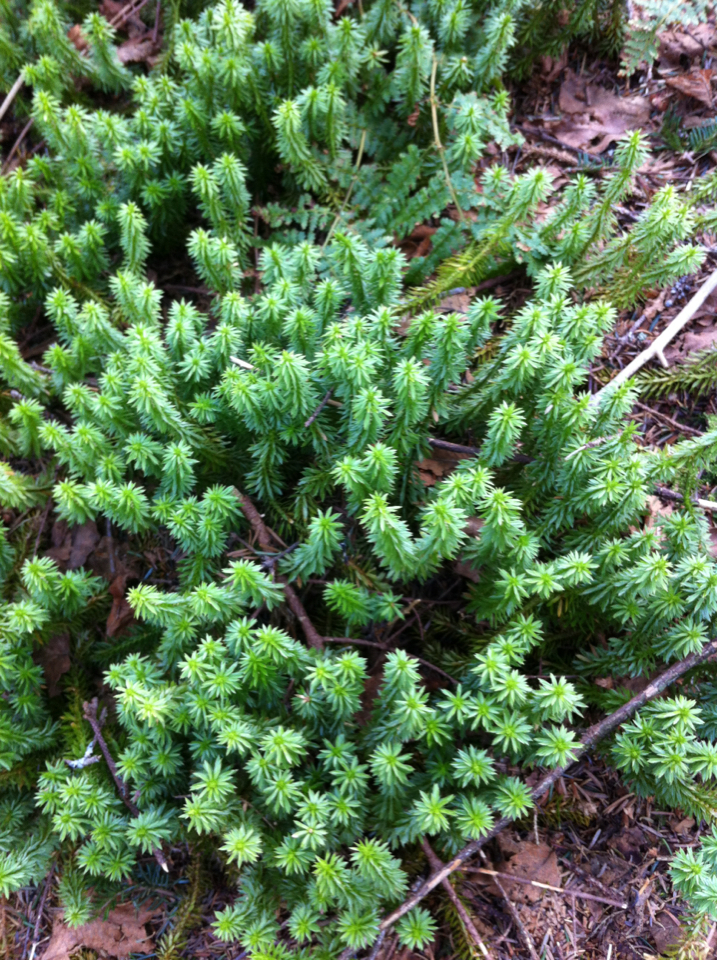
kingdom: Plantae
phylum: Tracheophyta
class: Lycopodiopsida
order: Lycopodiales
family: Lycopodiaceae
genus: Huperzia
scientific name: Huperzia lucidula
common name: Shining clubmoss
